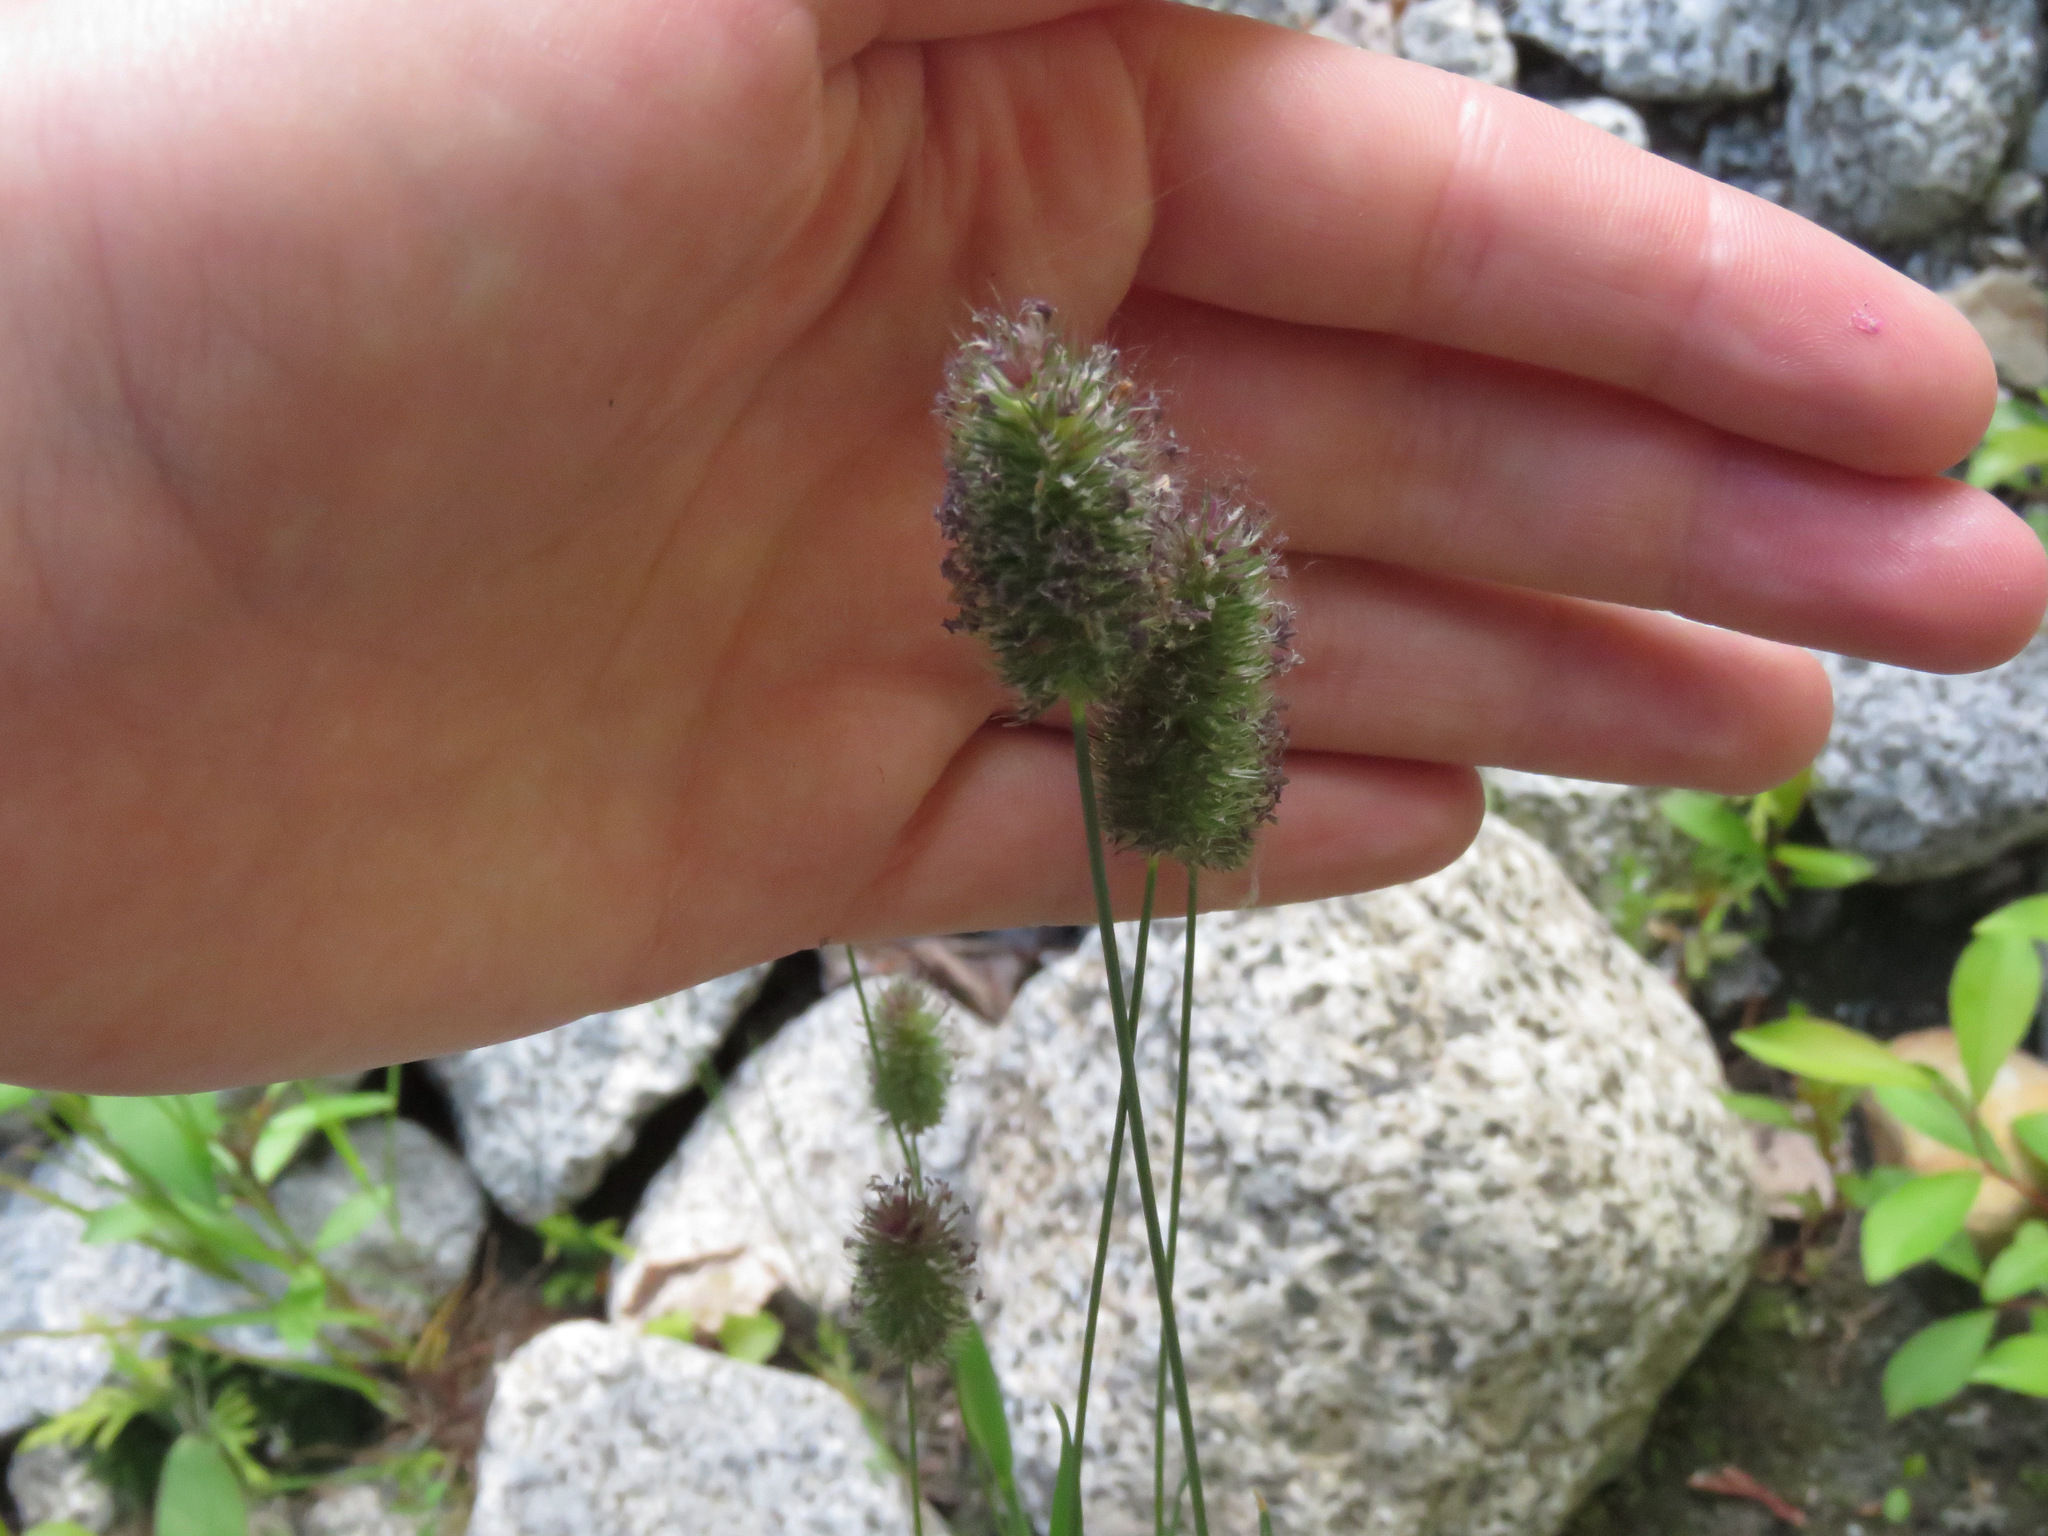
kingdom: Plantae
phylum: Tracheophyta
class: Liliopsida
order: Poales
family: Poaceae
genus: Phleum
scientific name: Phleum alpinum
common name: Alpine cat's-tail
